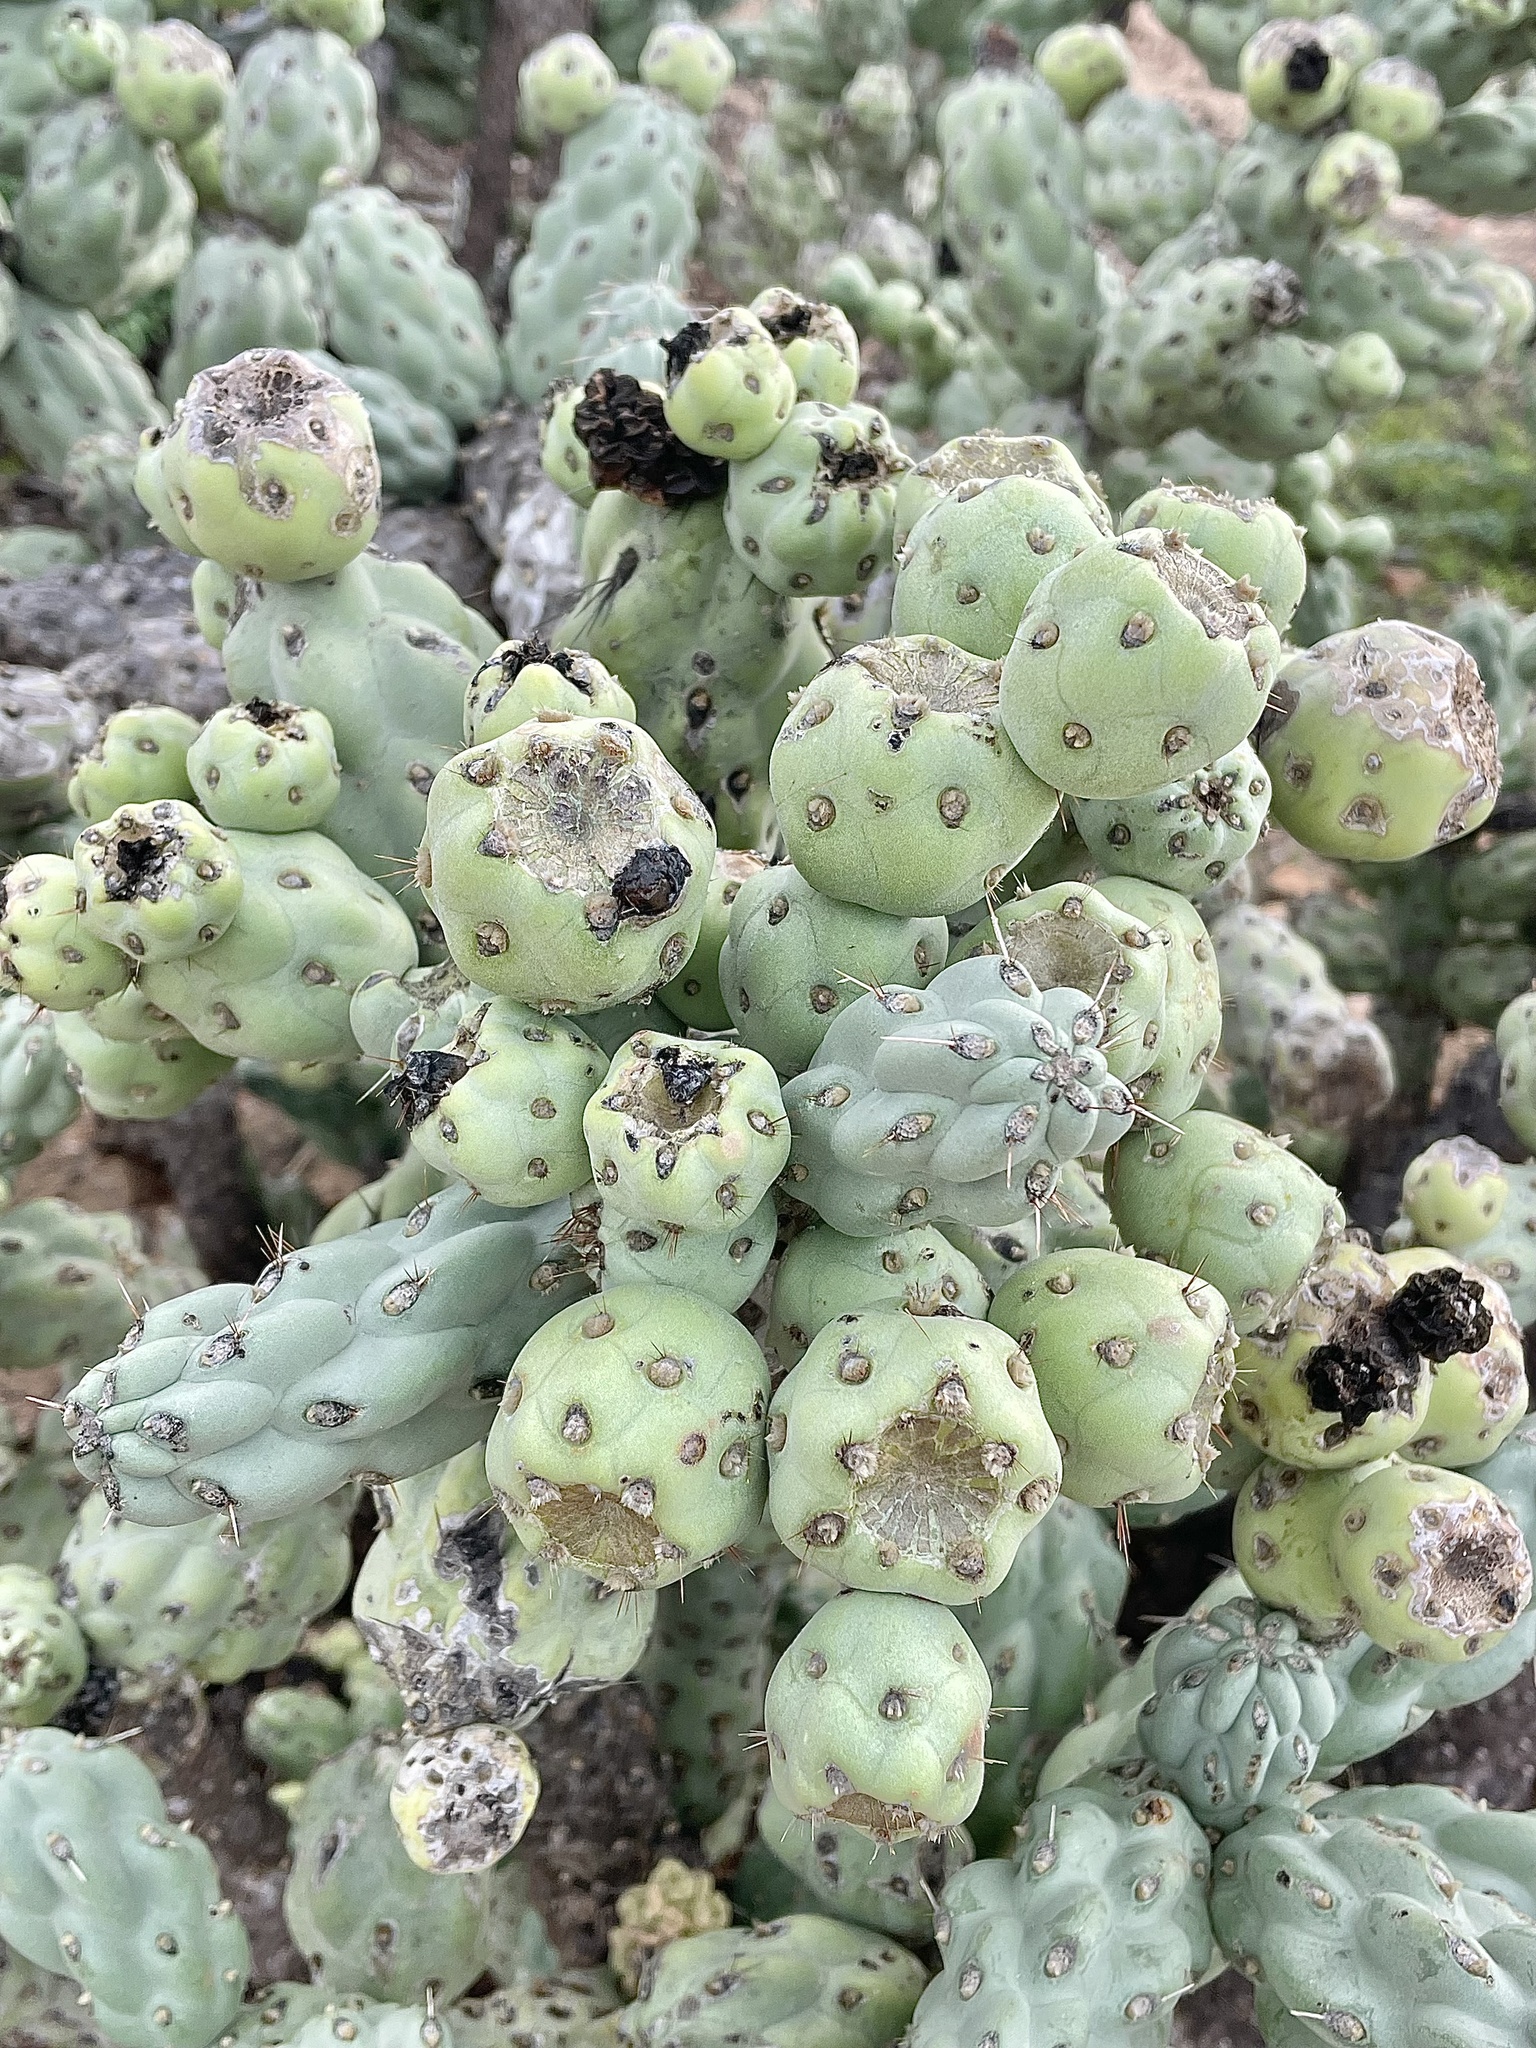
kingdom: Plantae
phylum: Tracheophyta
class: Magnoliopsida
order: Caryophyllales
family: Cactaceae
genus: Cylindropuntia
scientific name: Cylindropuntia cholla
